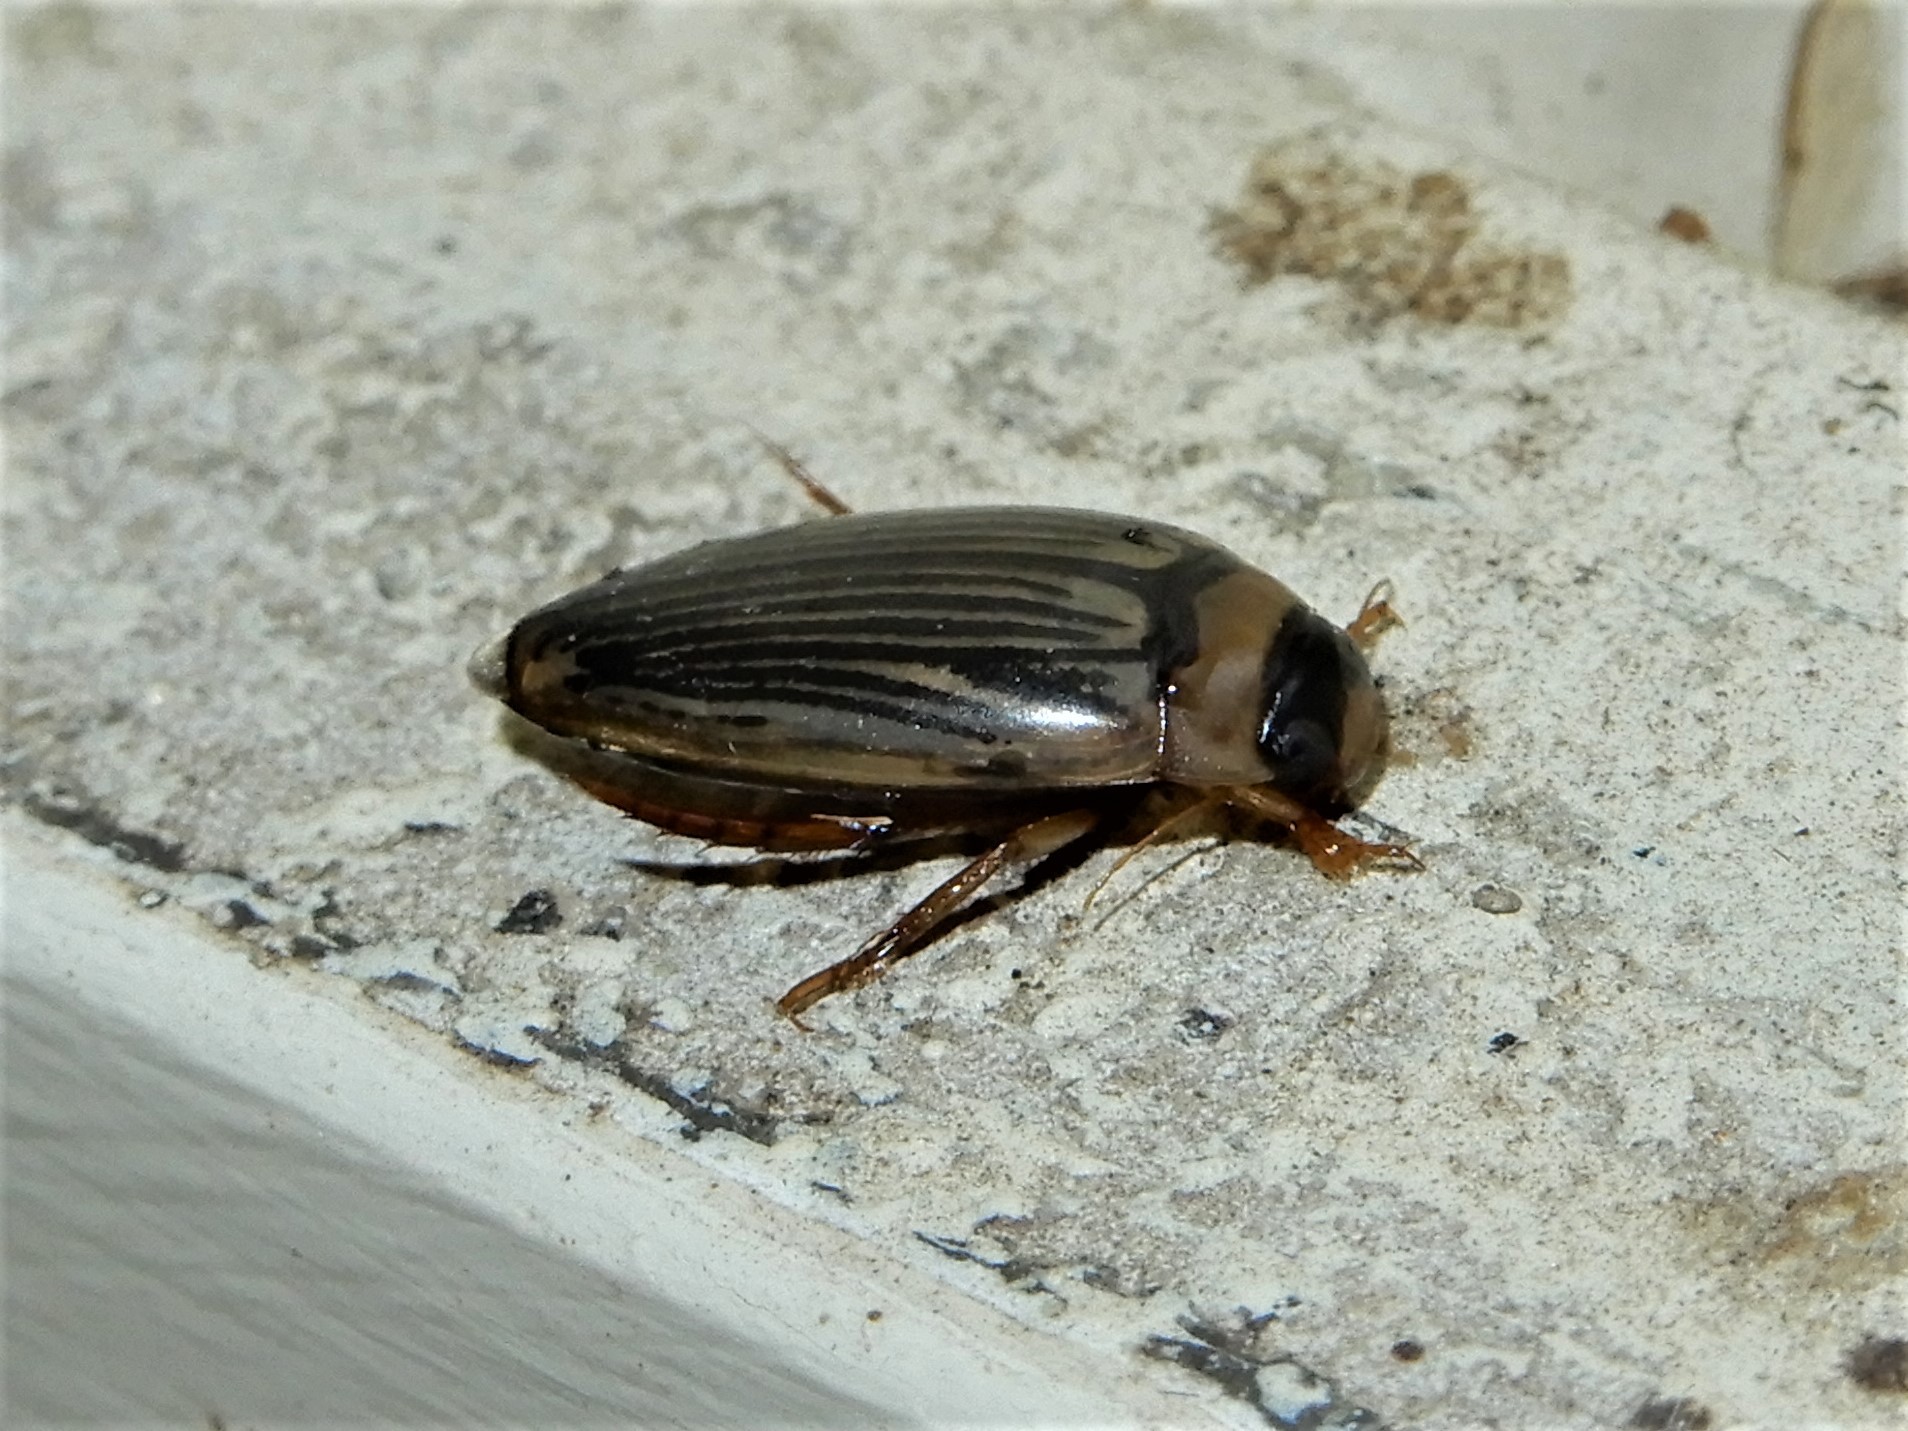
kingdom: Animalia
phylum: Arthropoda
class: Insecta
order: Coleoptera
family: Dytiscidae
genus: Lancetes
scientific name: Lancetes lanceolatus
